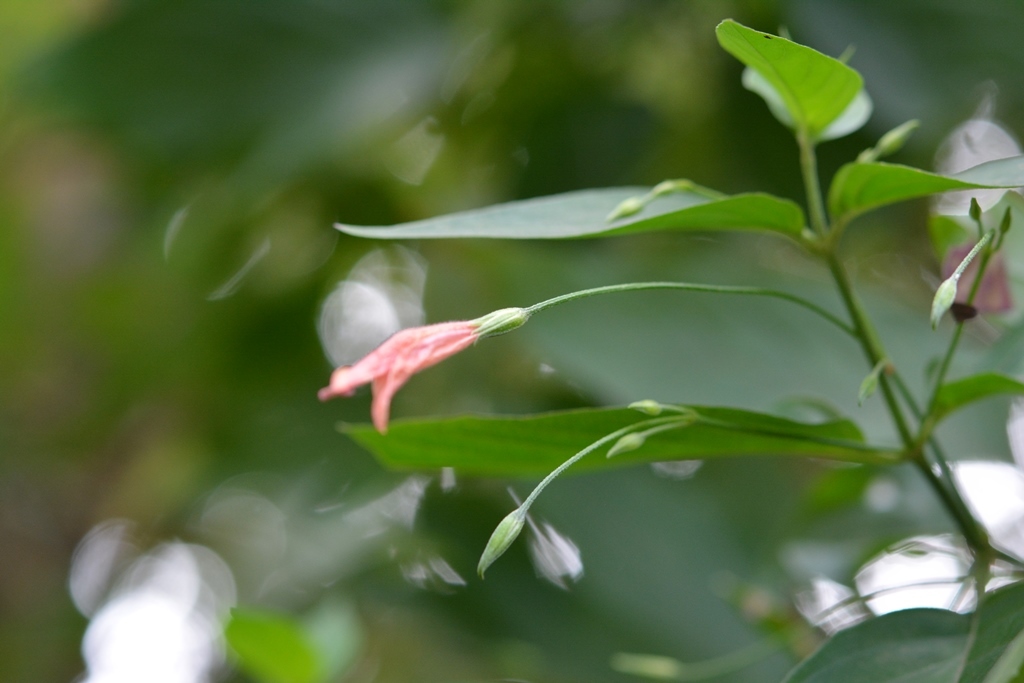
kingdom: Plantae
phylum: Tracheophyta
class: Magnoliopsida
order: Lamiales
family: Acanthaceae
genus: Dicliptera
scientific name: Dicliptera sciadephora
